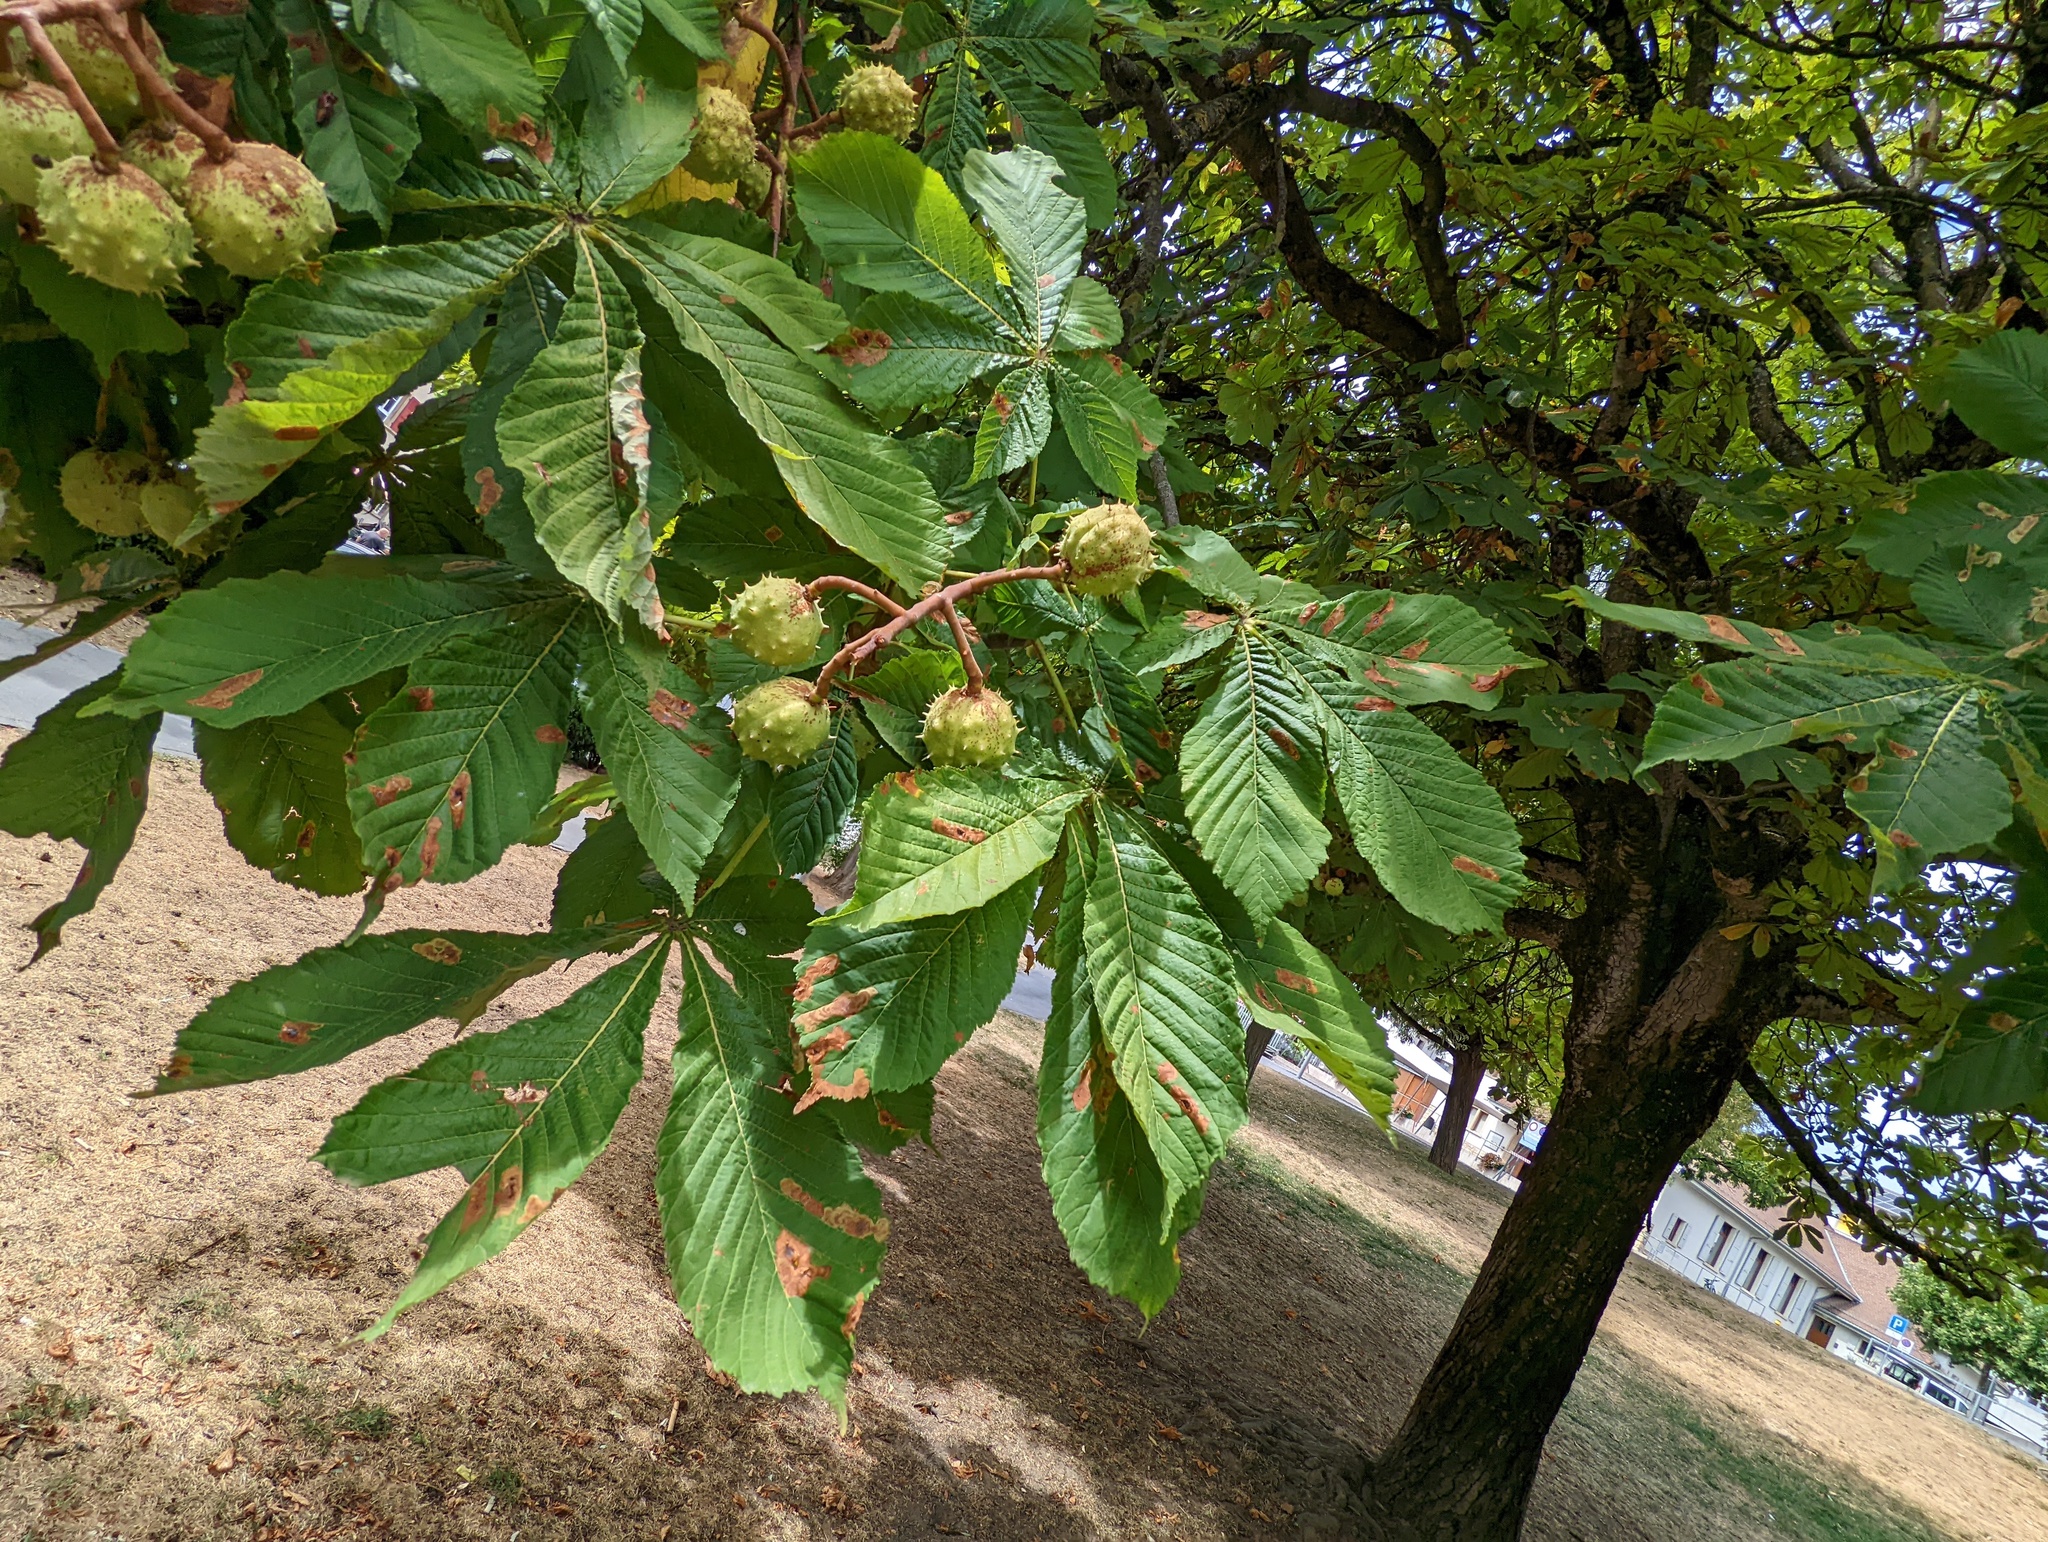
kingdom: Animalia
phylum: Arthropoda
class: Insecta
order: Lepidoptera
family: Gracillariidae
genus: Cameraria
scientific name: Cameraria ohridella
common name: Horse-chestnut leaf-miner
